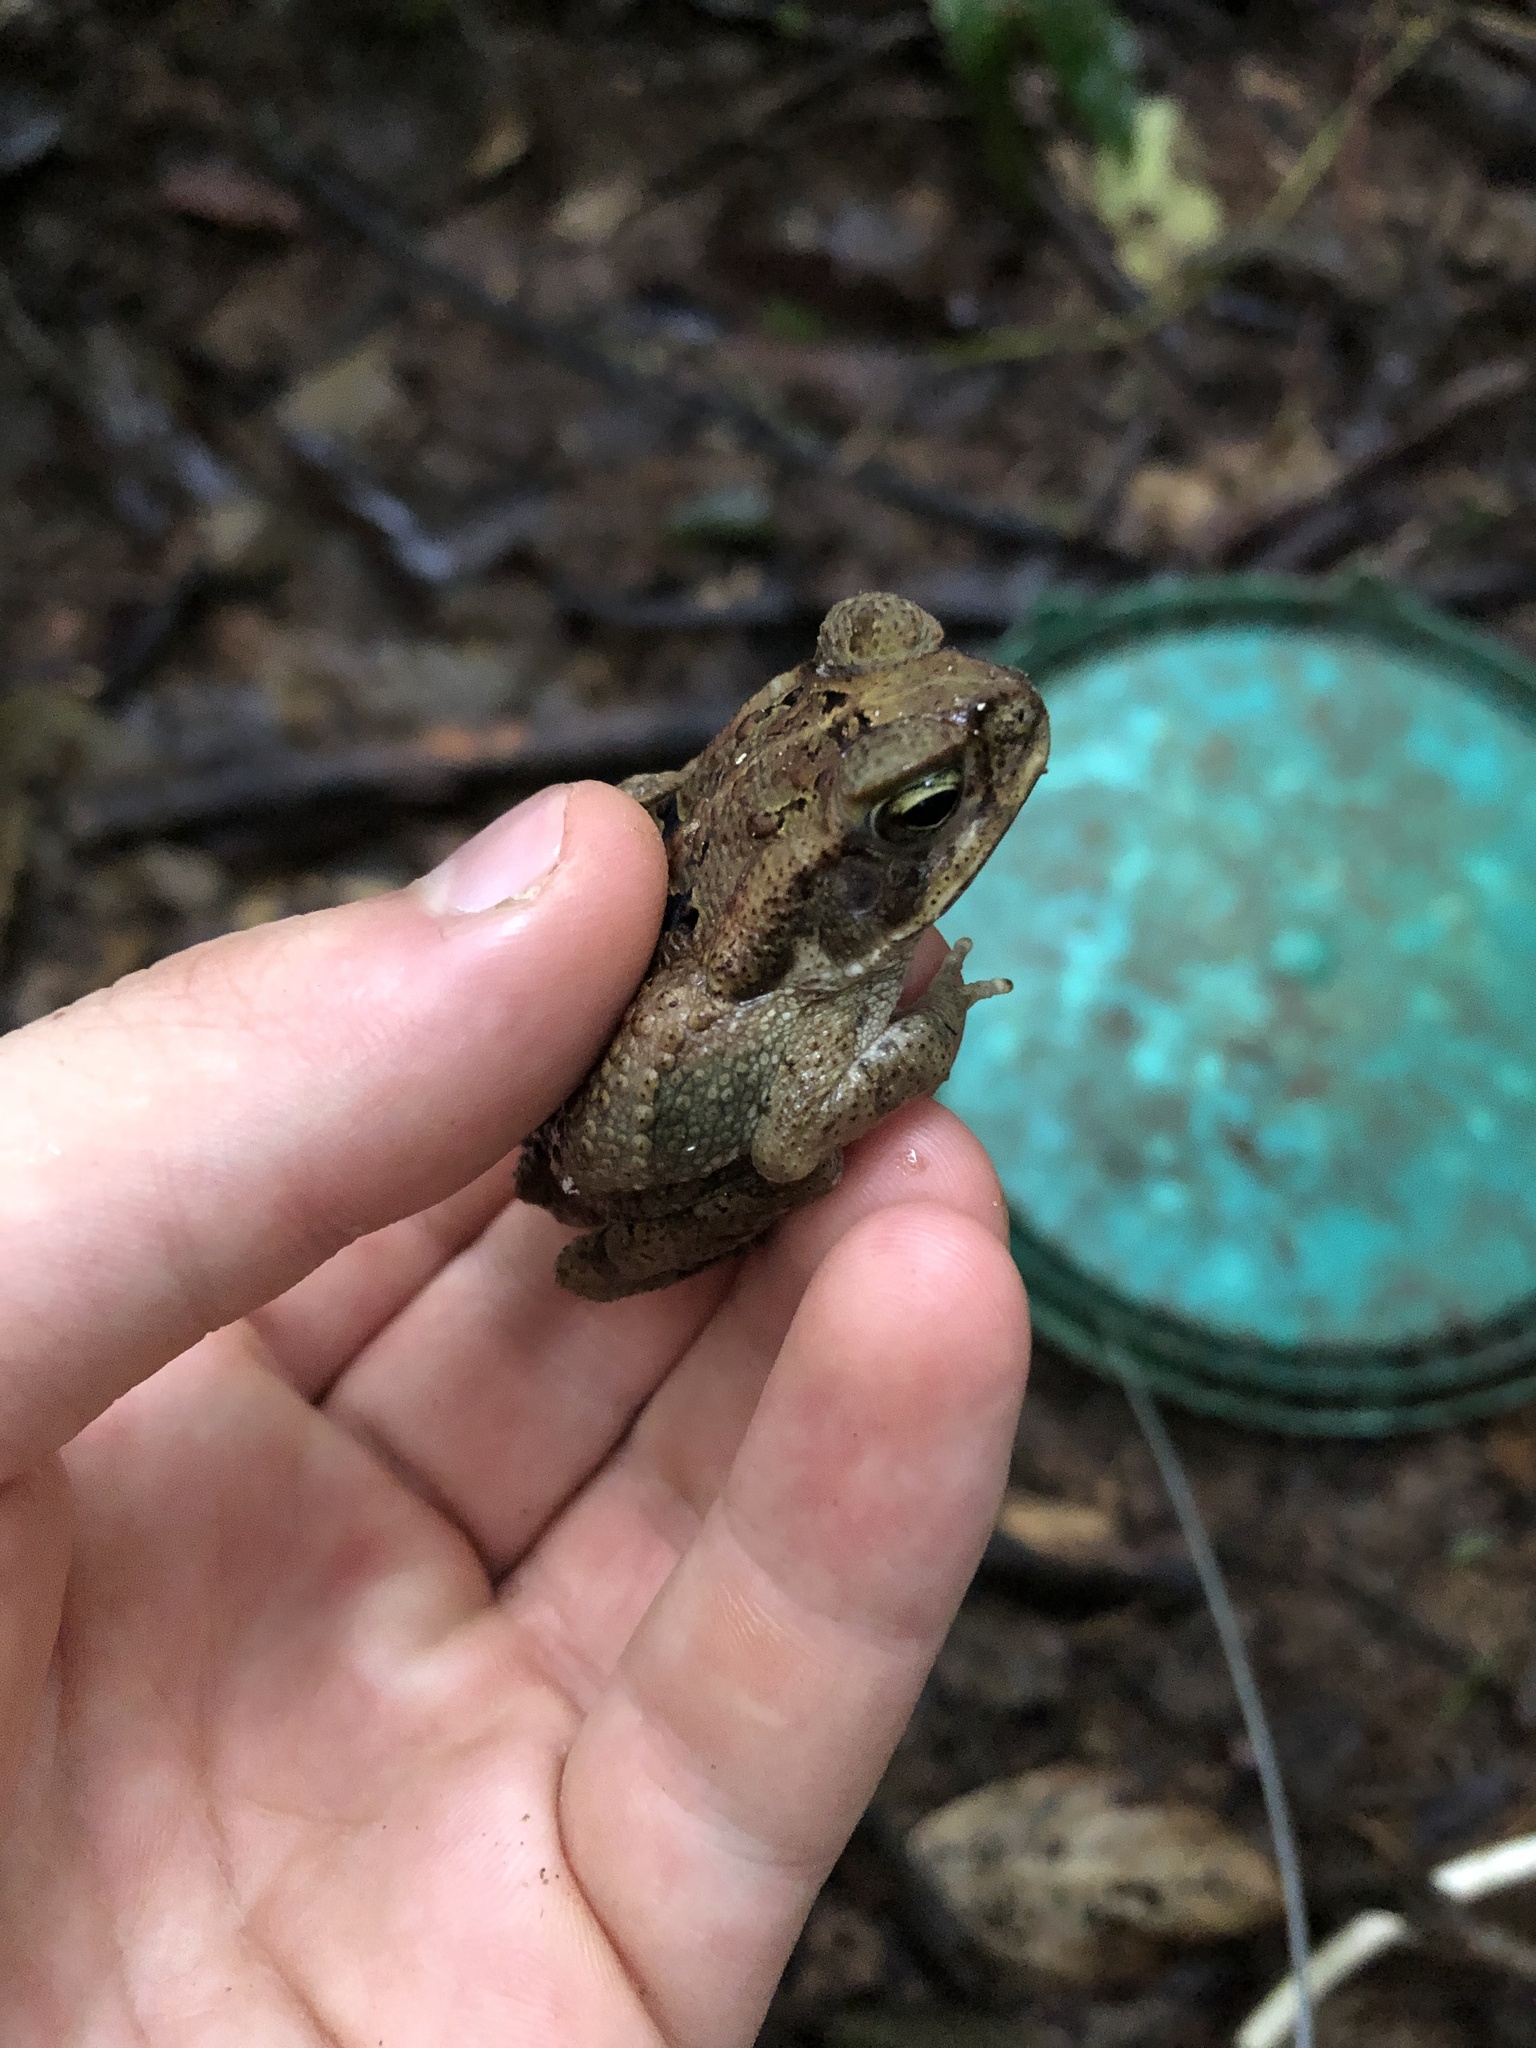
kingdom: Animalia
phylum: Chordata
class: Amphibia
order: Anura
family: Bufonidae
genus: Rhinella
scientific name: Rhinella marina
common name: Cane toad
